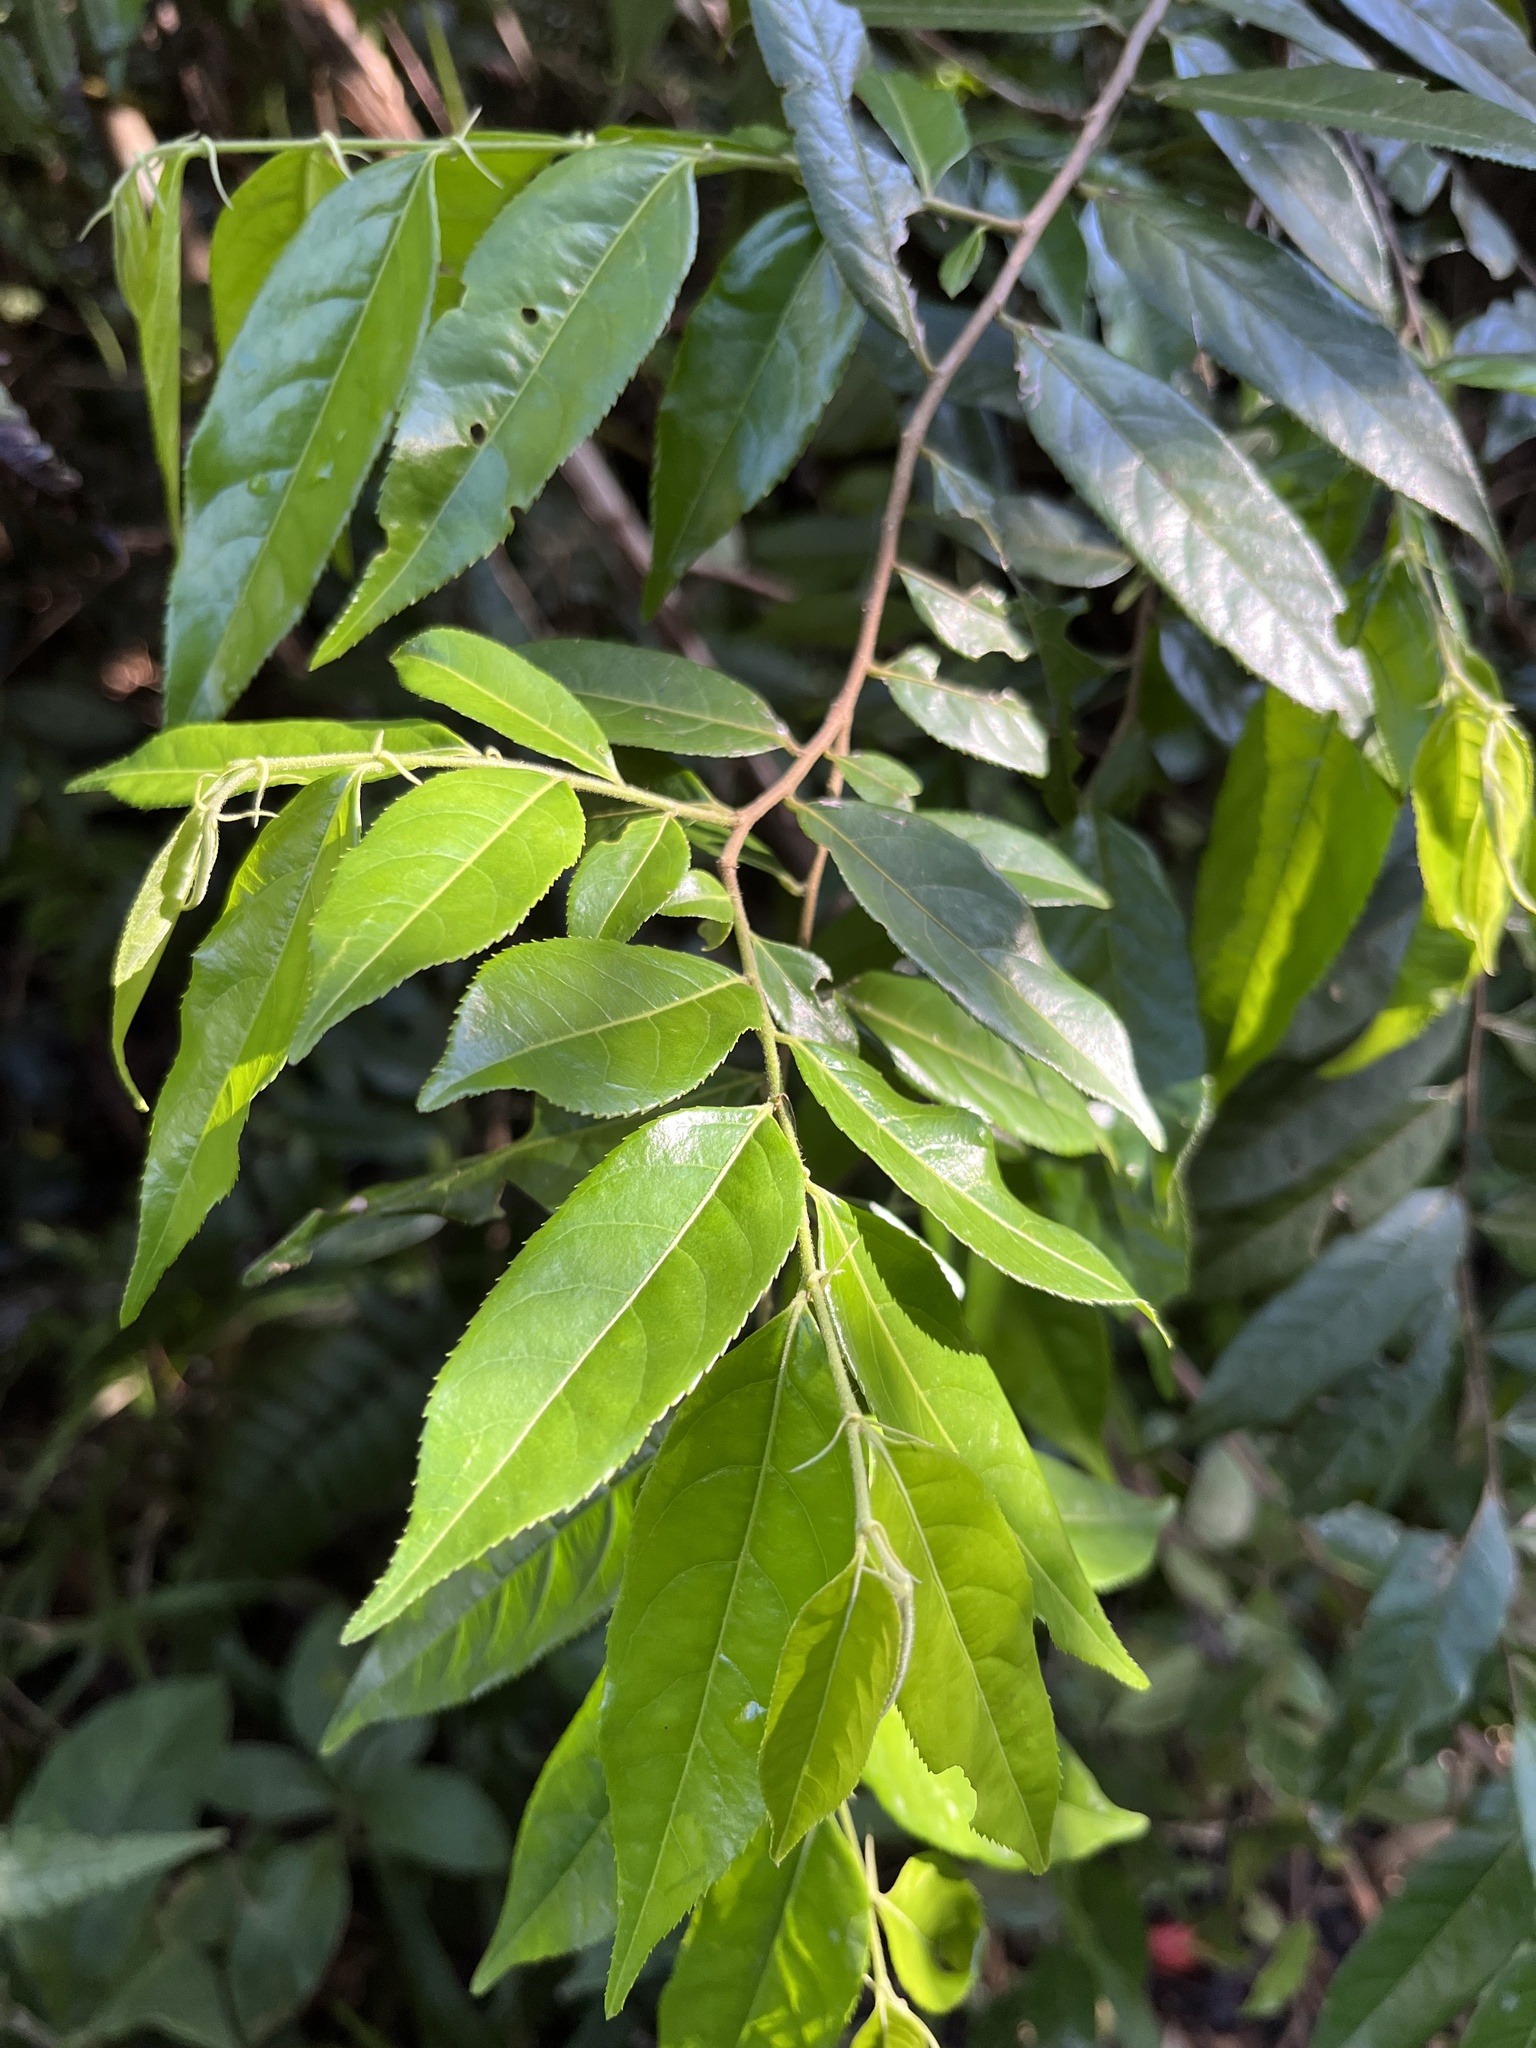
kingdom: Plantae
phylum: Tracheophyta
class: Magnoliopsida
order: Malpighiales
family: Salicaceae
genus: Casearia
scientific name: Casearia arborea
